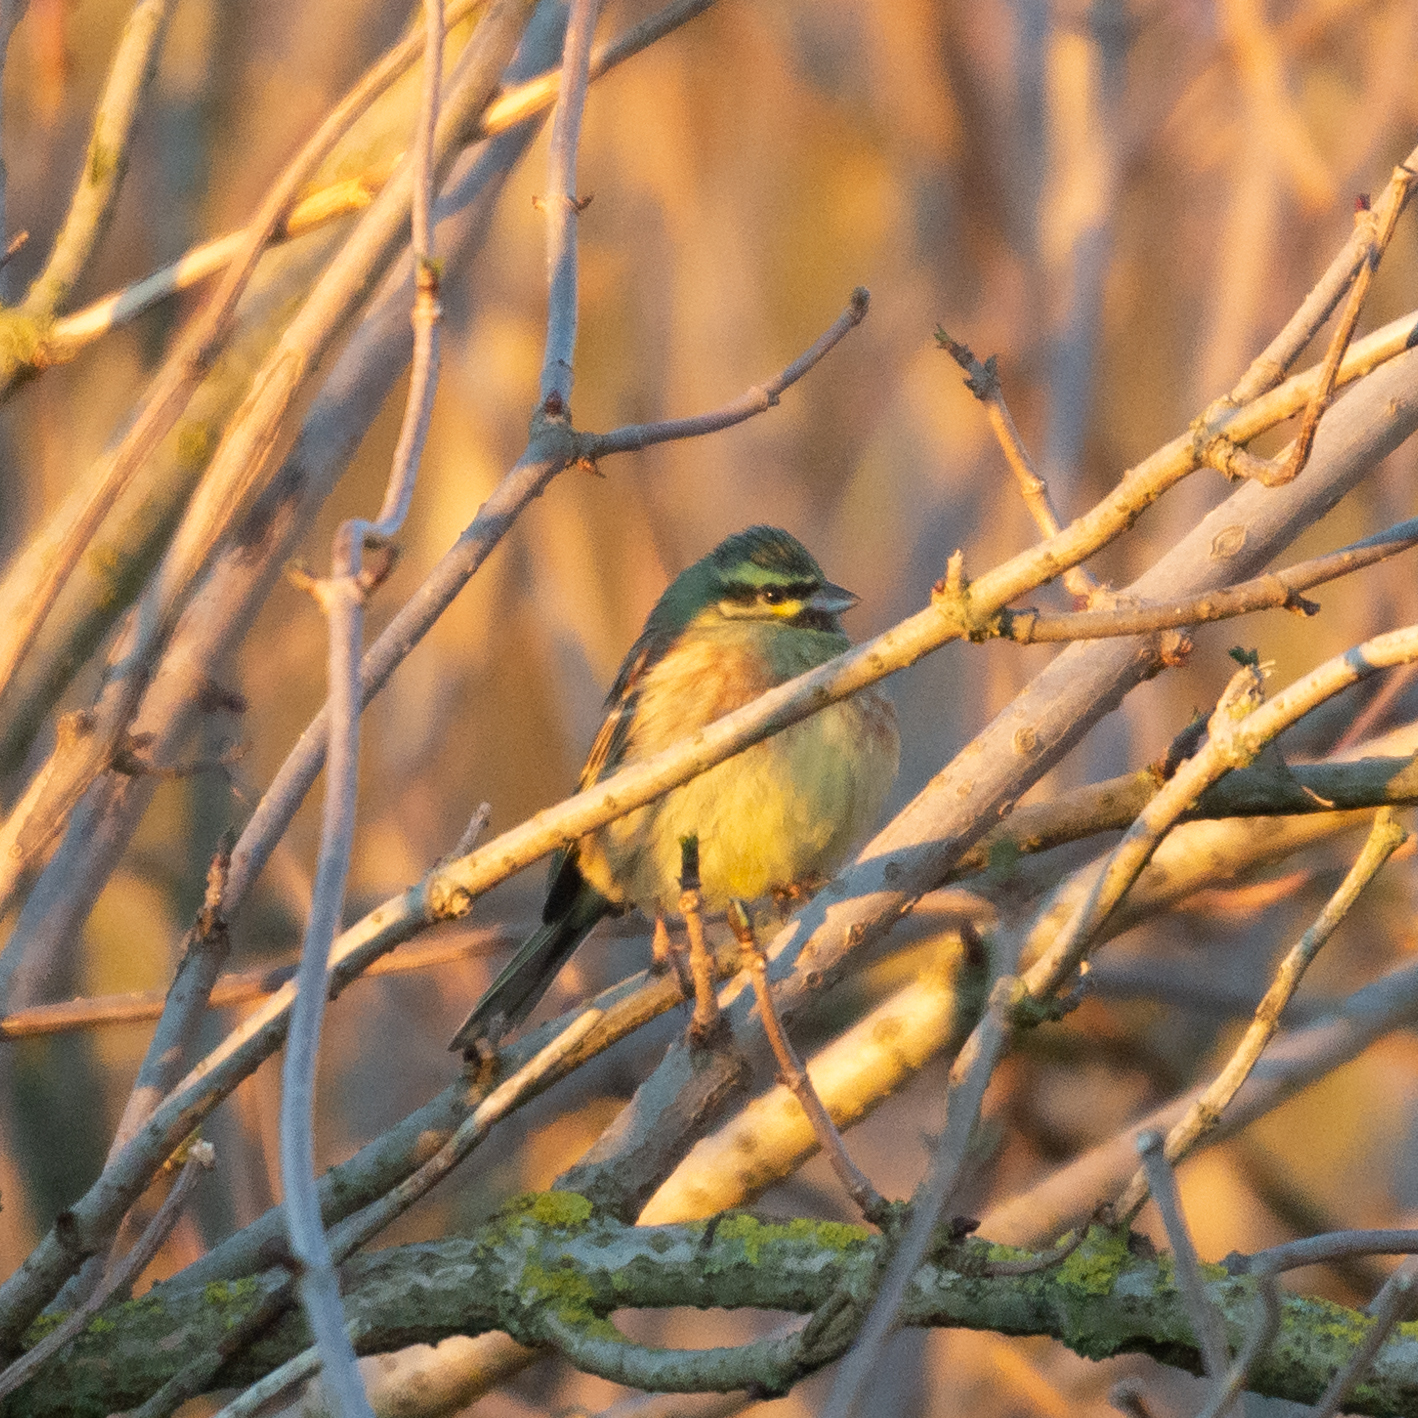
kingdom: Animalia
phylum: Chordata
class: Aves
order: Passeriformes
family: Emberizidae
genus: Emberiza
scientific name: Emberiza cirlus
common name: Cirl bunting
